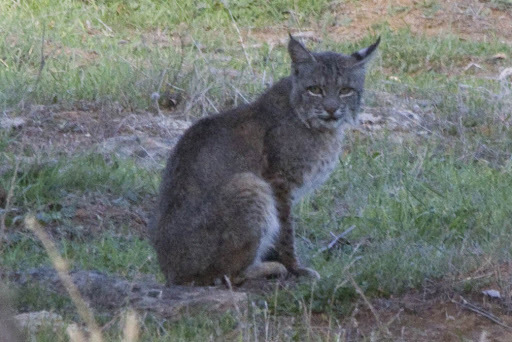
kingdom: Animalia
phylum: Chordata
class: Mammalia
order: Carnivora
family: Felidae
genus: Lynx
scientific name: Lynx rufus
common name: Bobcat
